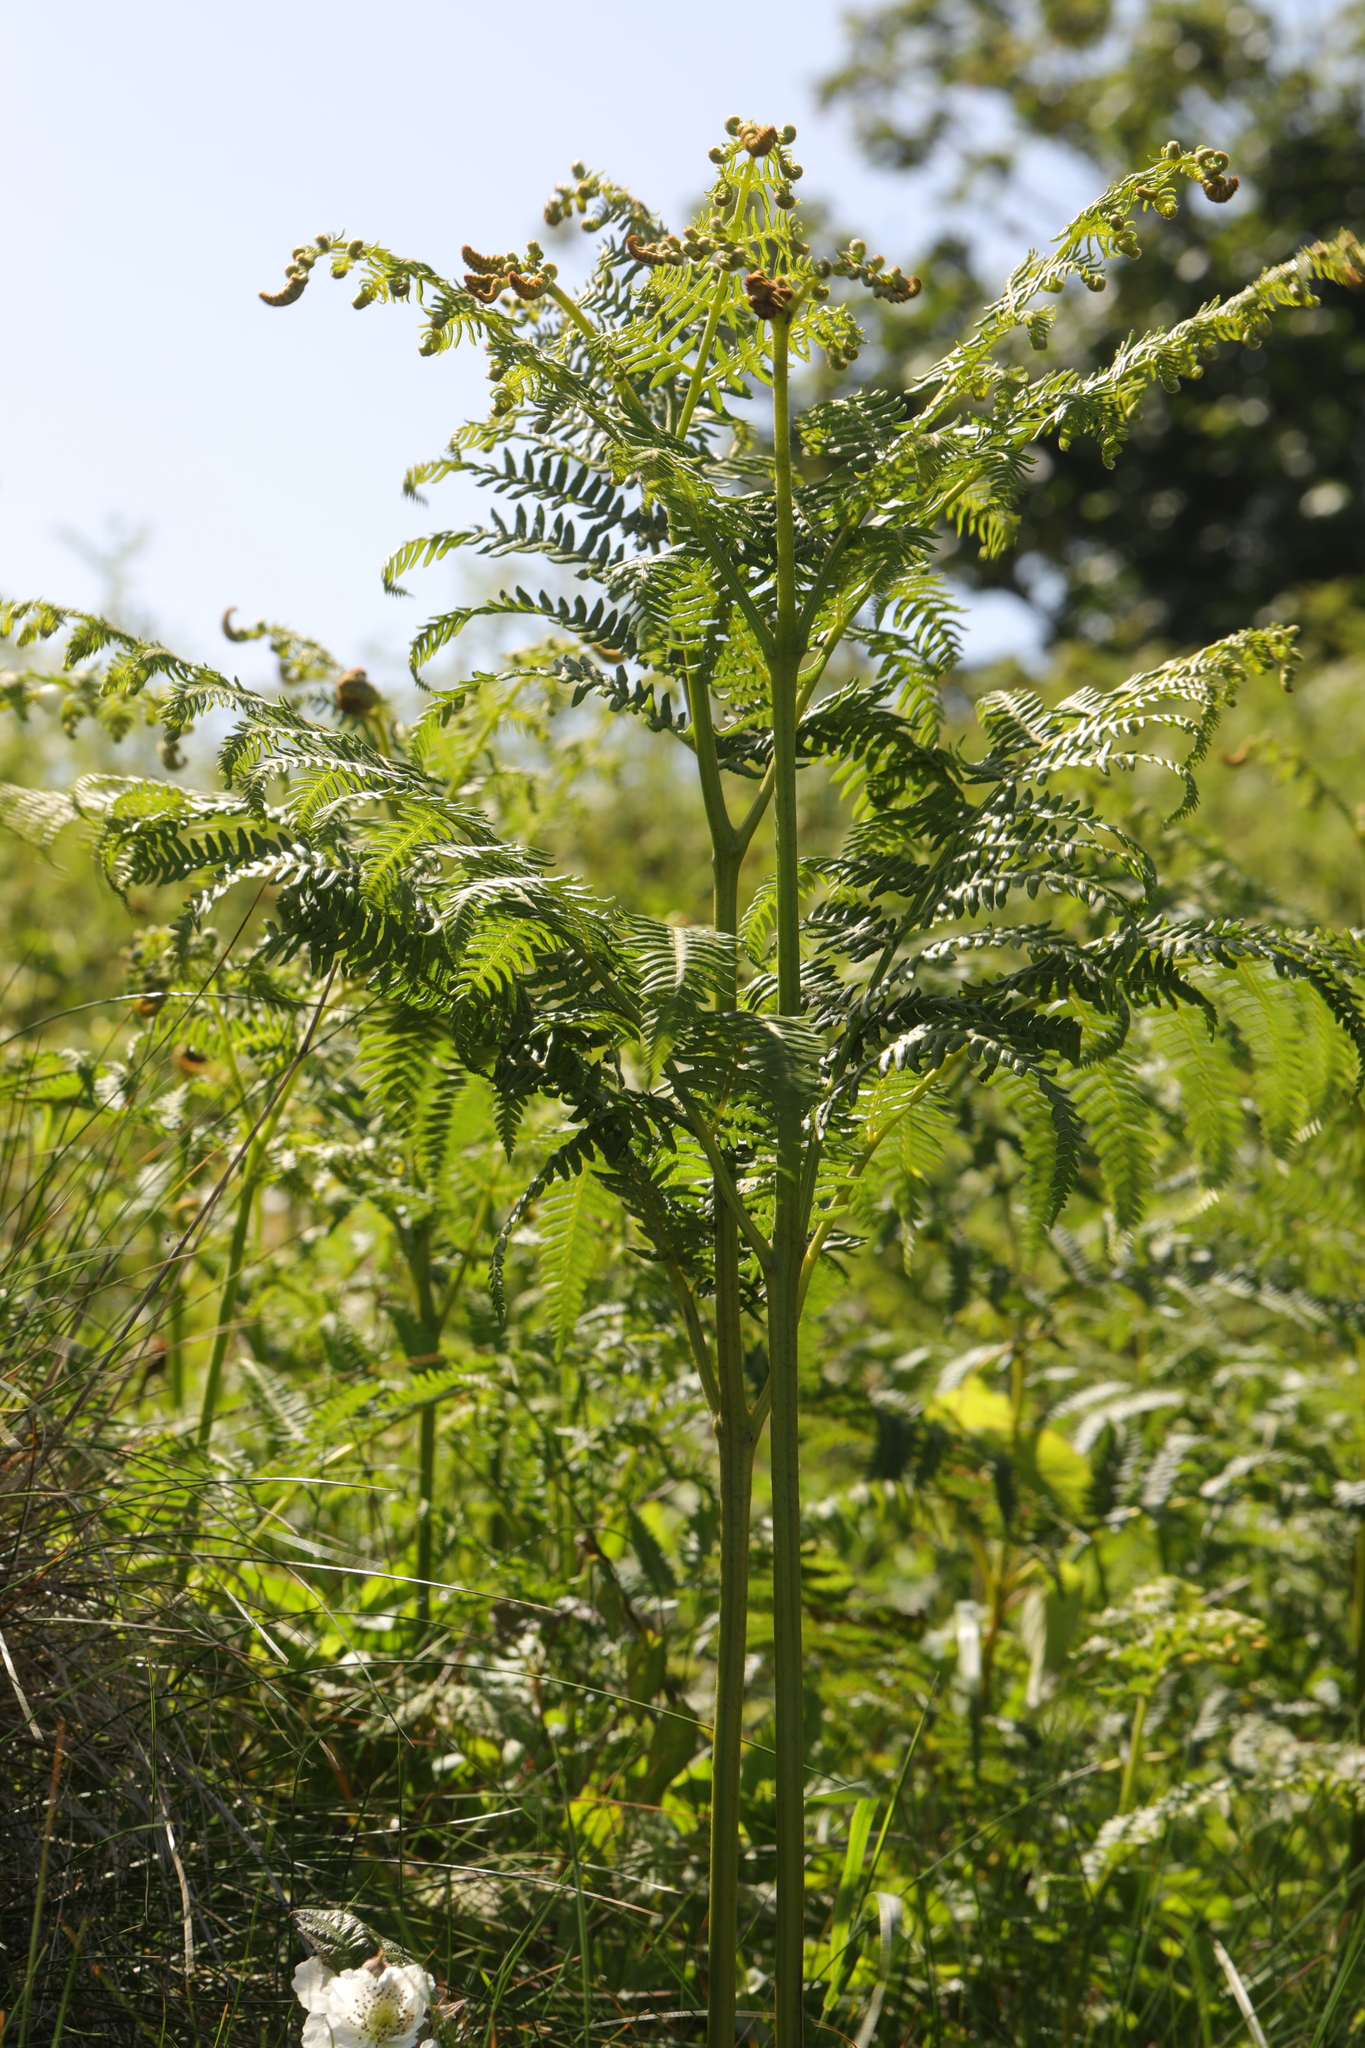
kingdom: Plantae
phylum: Tracheophyta
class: Polypodiopsida
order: Polypodiales
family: Dennstaedtiaceae
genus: Pteridium
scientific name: Pteridium aquilinum
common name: Bracken
